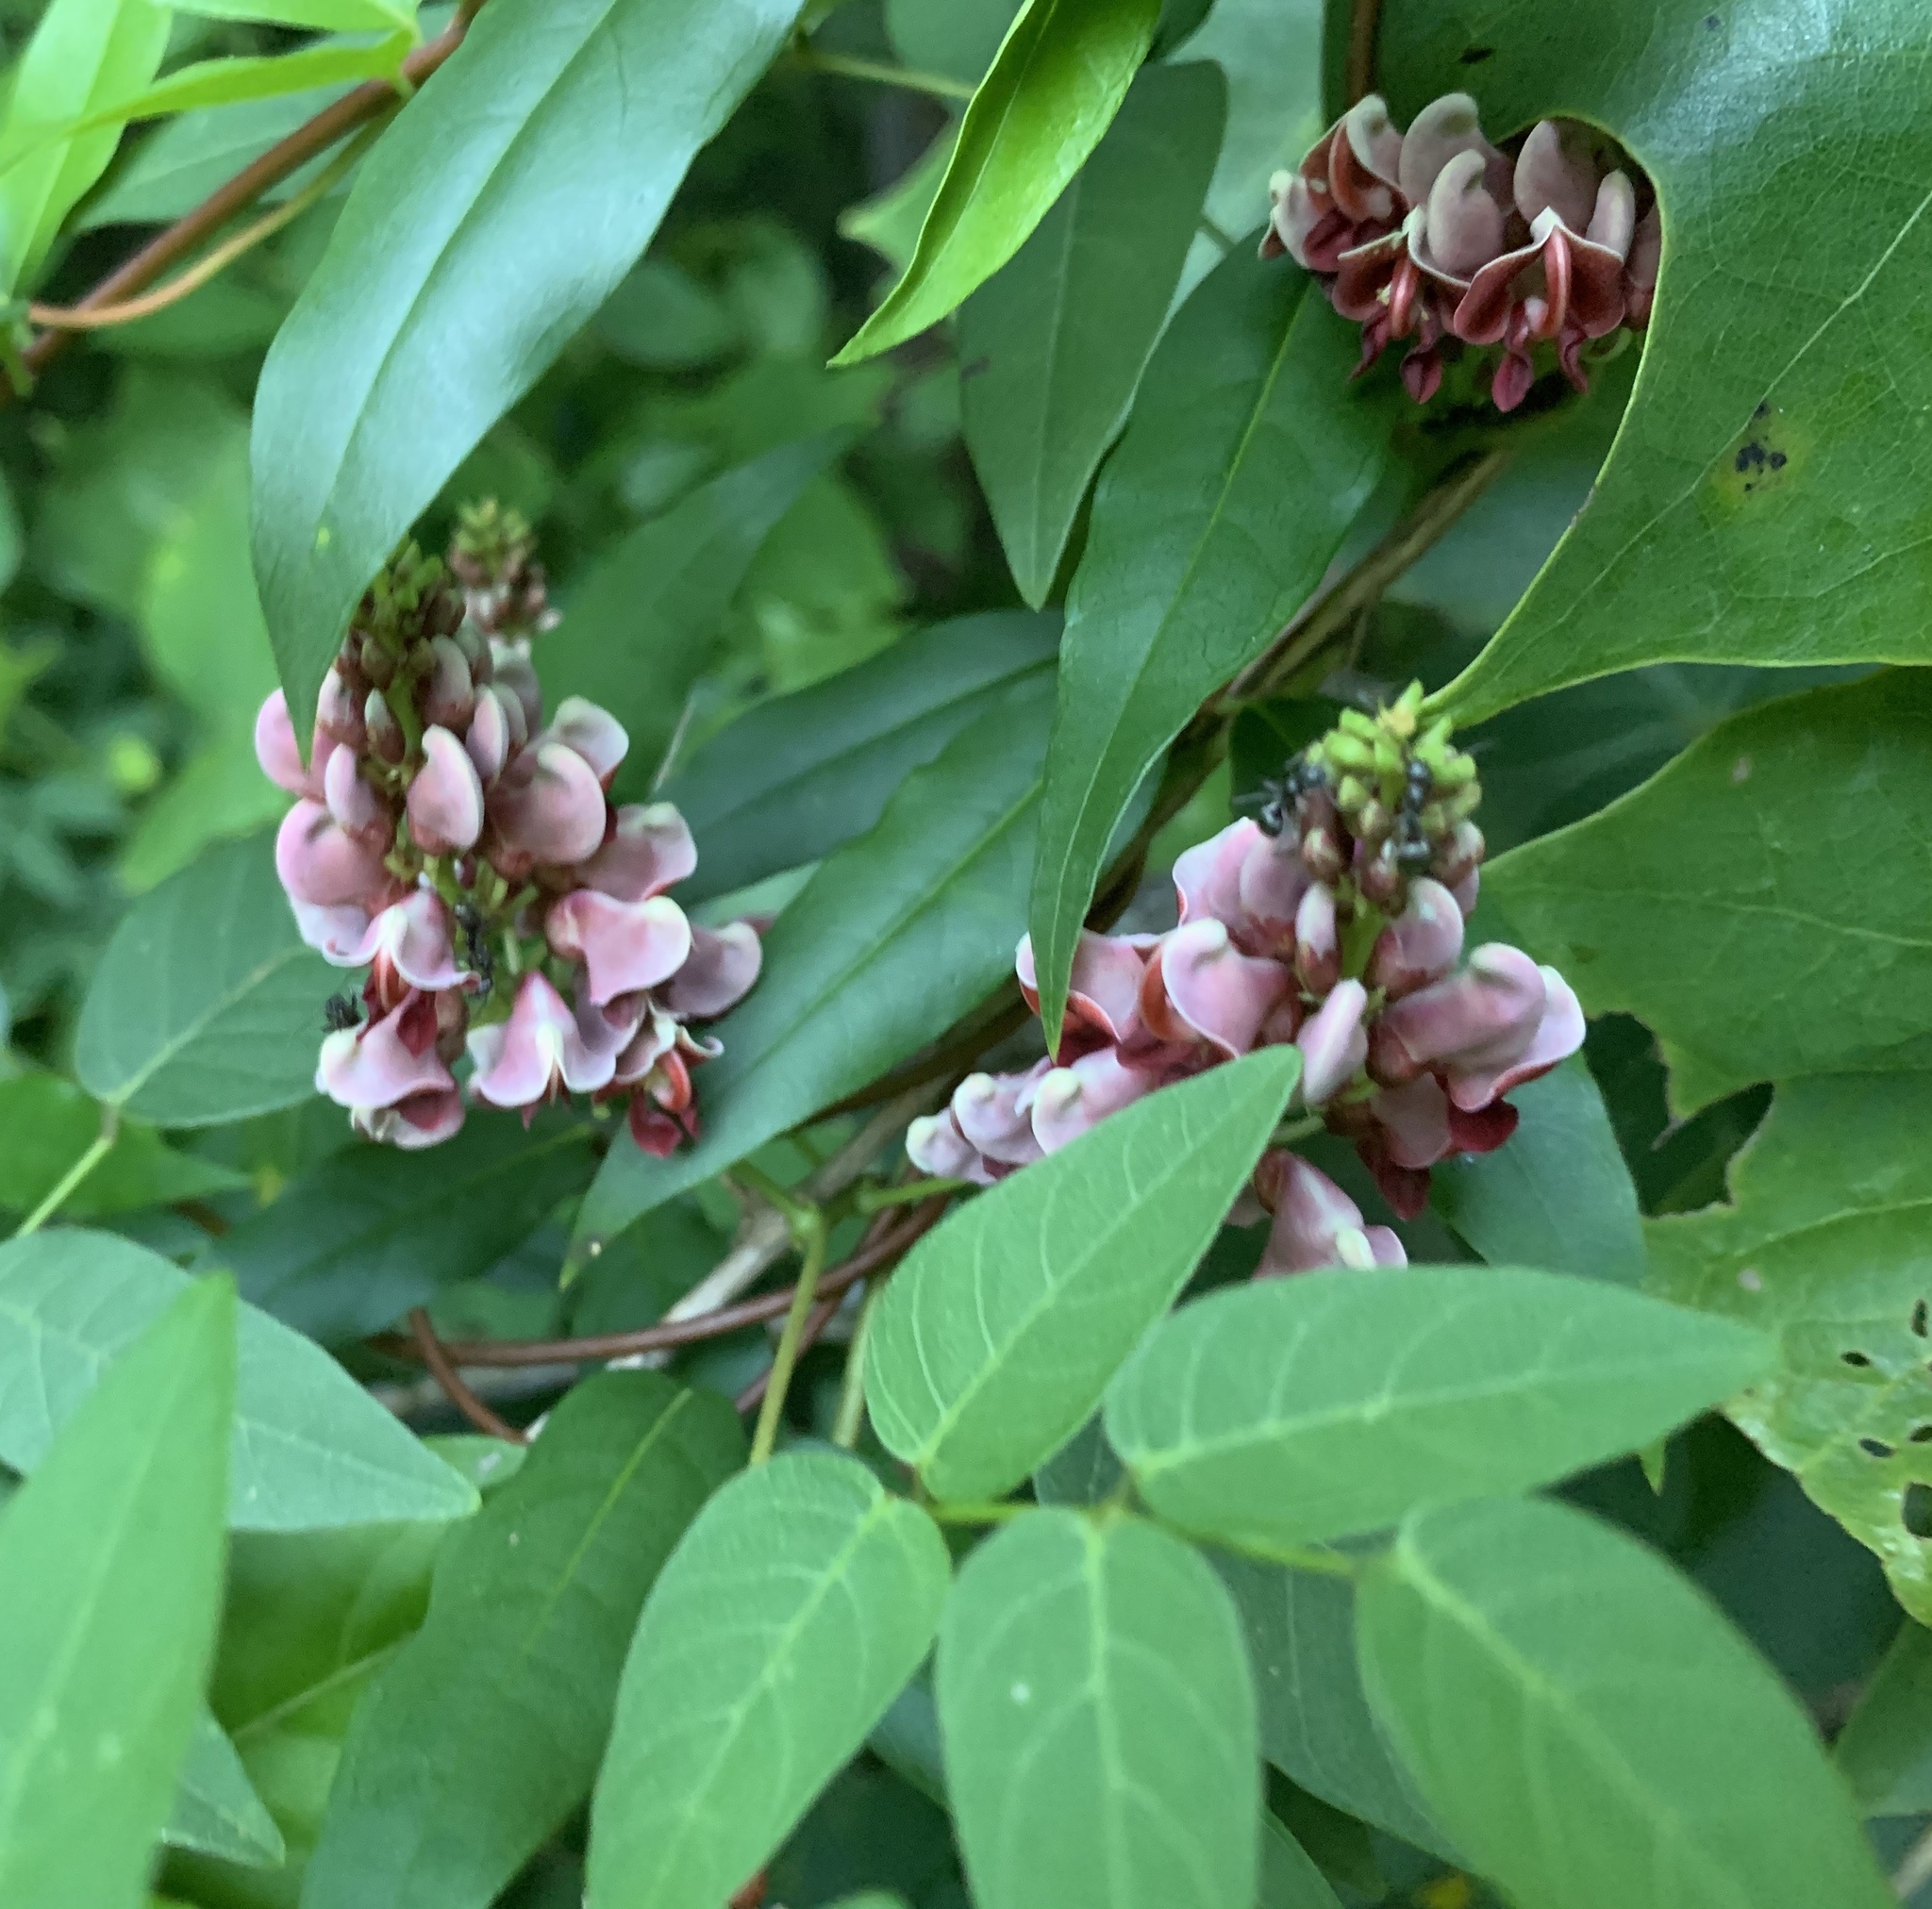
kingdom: Plantae
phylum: Tracheophyta
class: Magnoliopsida
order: Fabales
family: Fabaceae
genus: Apios
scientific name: Apios americana
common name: American potato-bean
